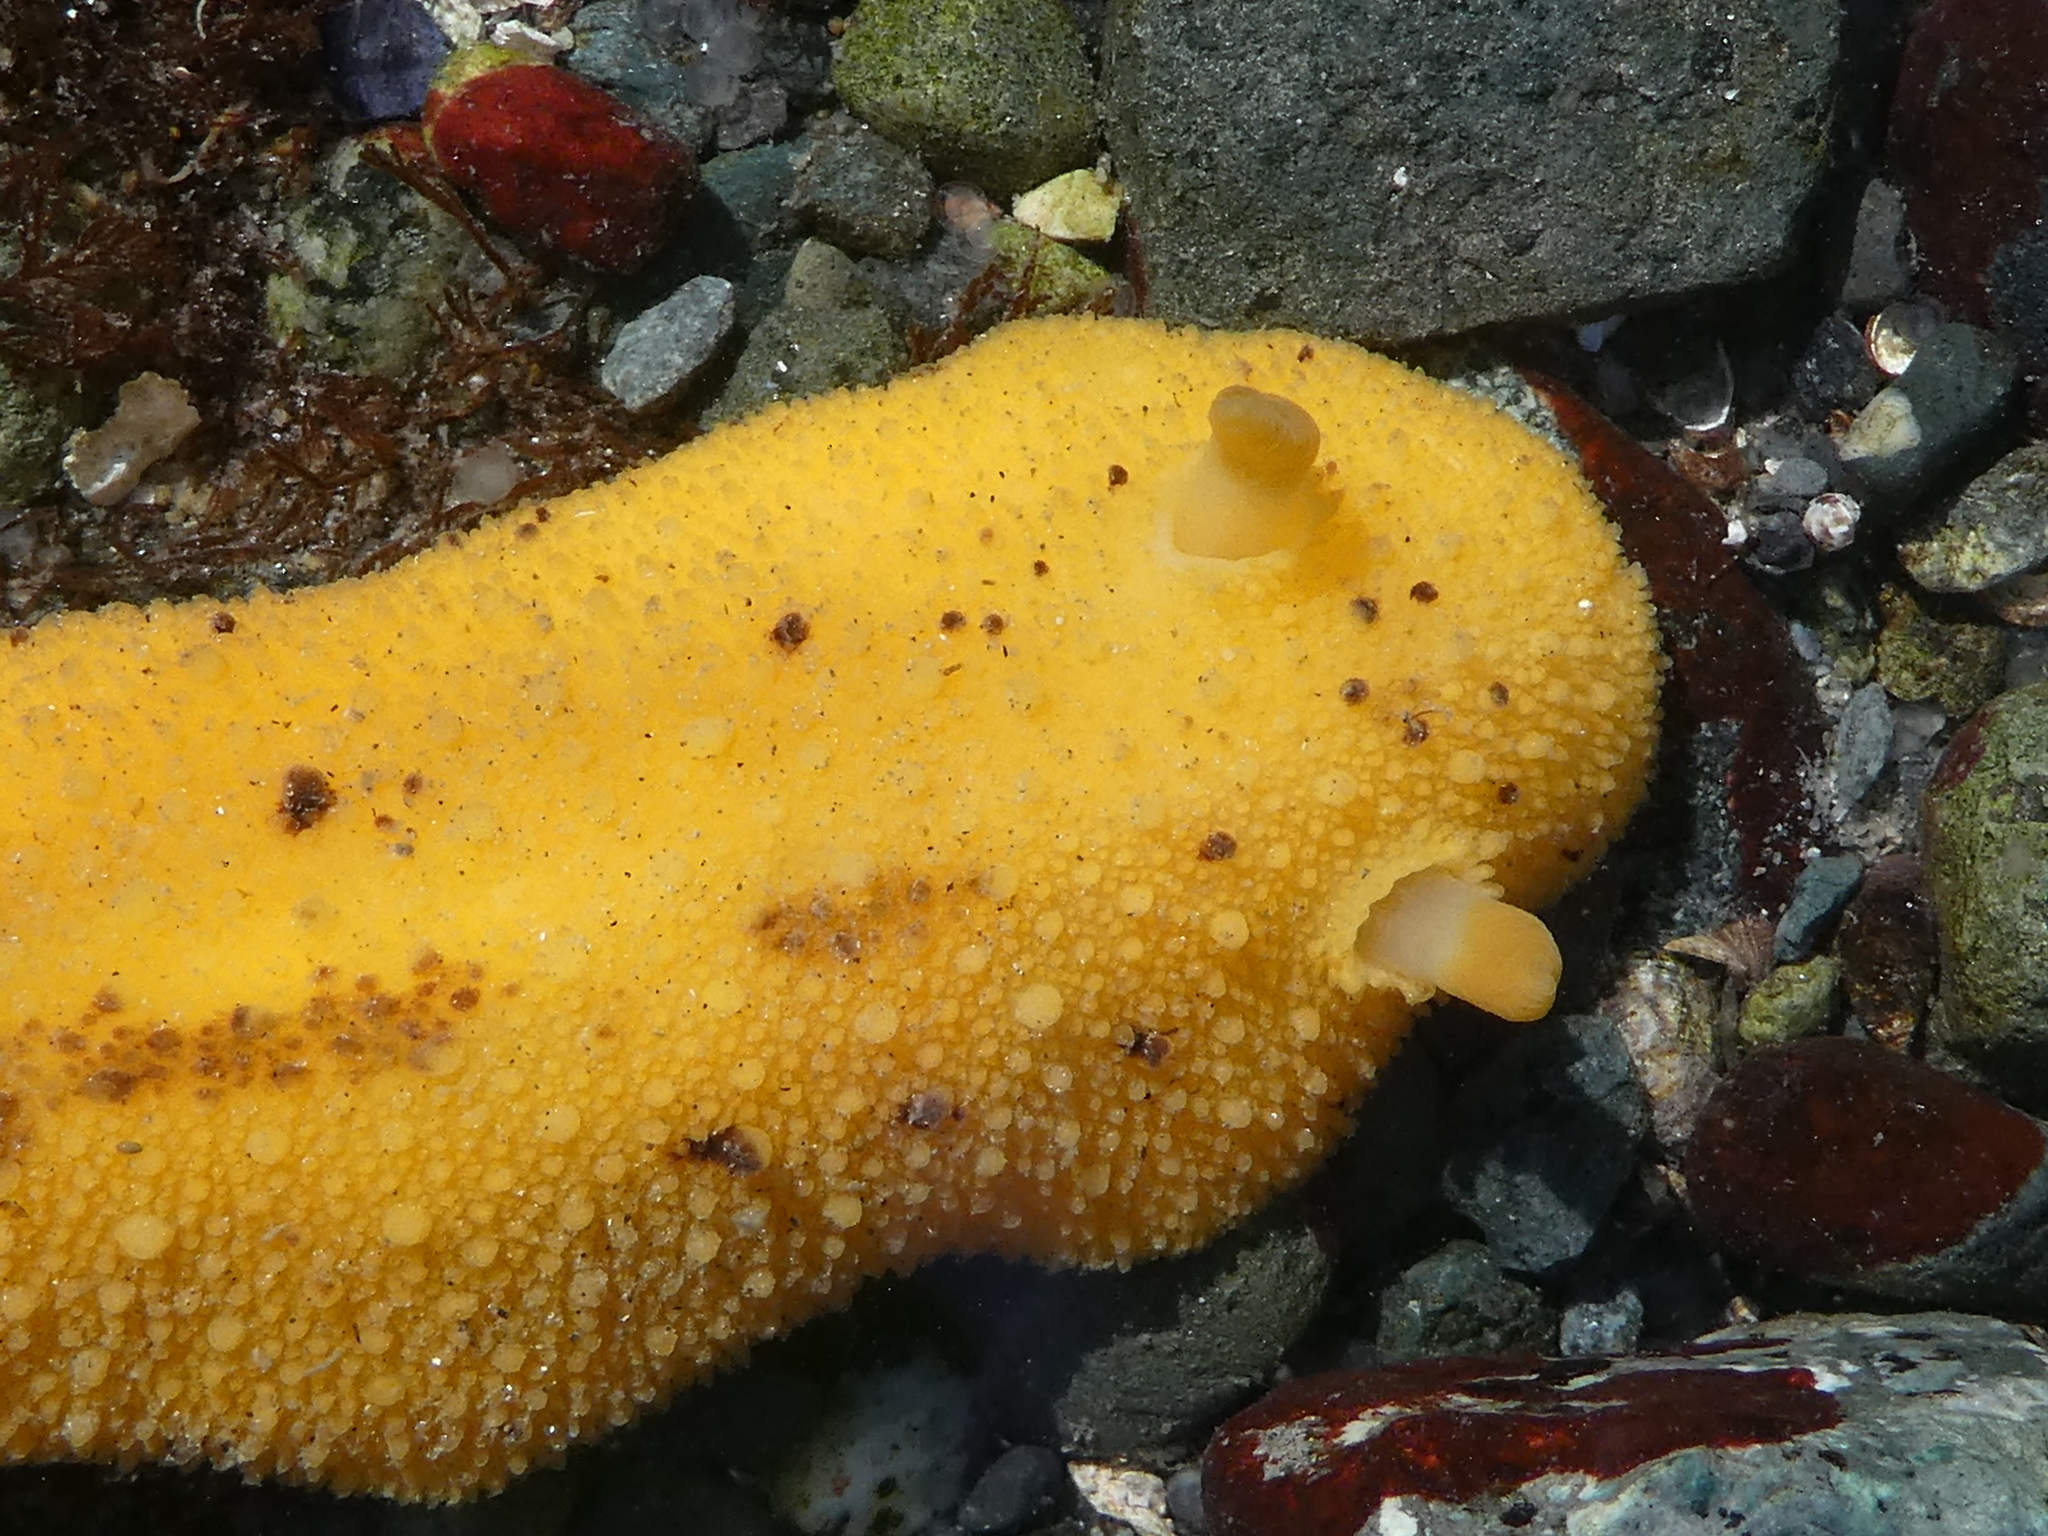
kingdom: Animalia
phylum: Mollusca
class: Gastropoda
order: Nudibranchia
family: Dorididae
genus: Doris
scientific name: Doris montereyensis
